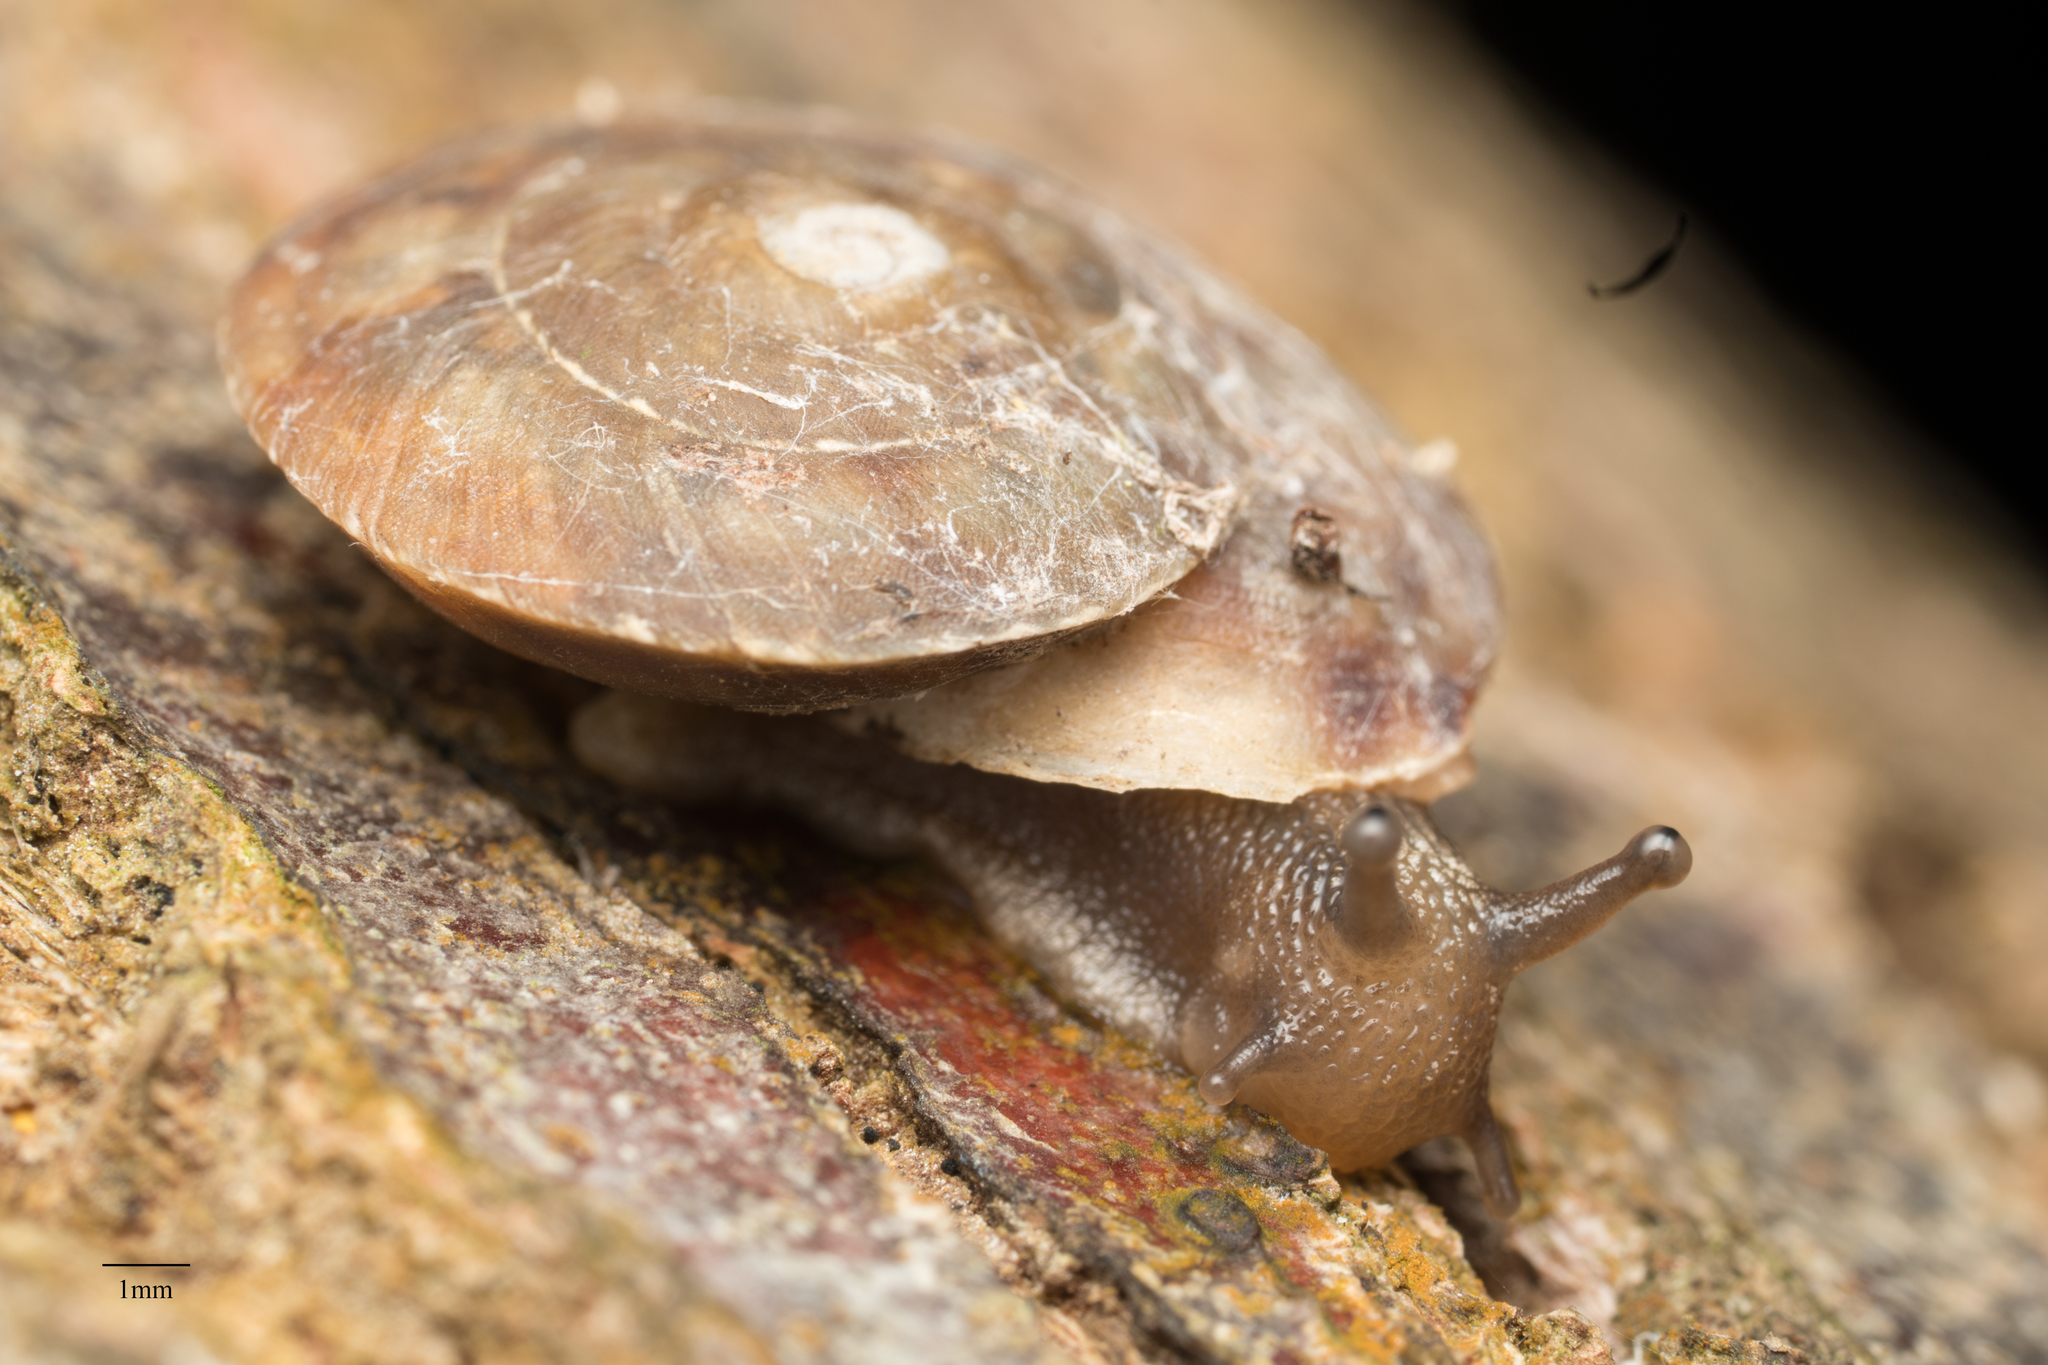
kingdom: Animalia
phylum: Mollusca
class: Gastropoda
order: Stylommatophora
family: Helicidae
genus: Helicigona
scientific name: Helicigona lapicida
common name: Lapidary snail
